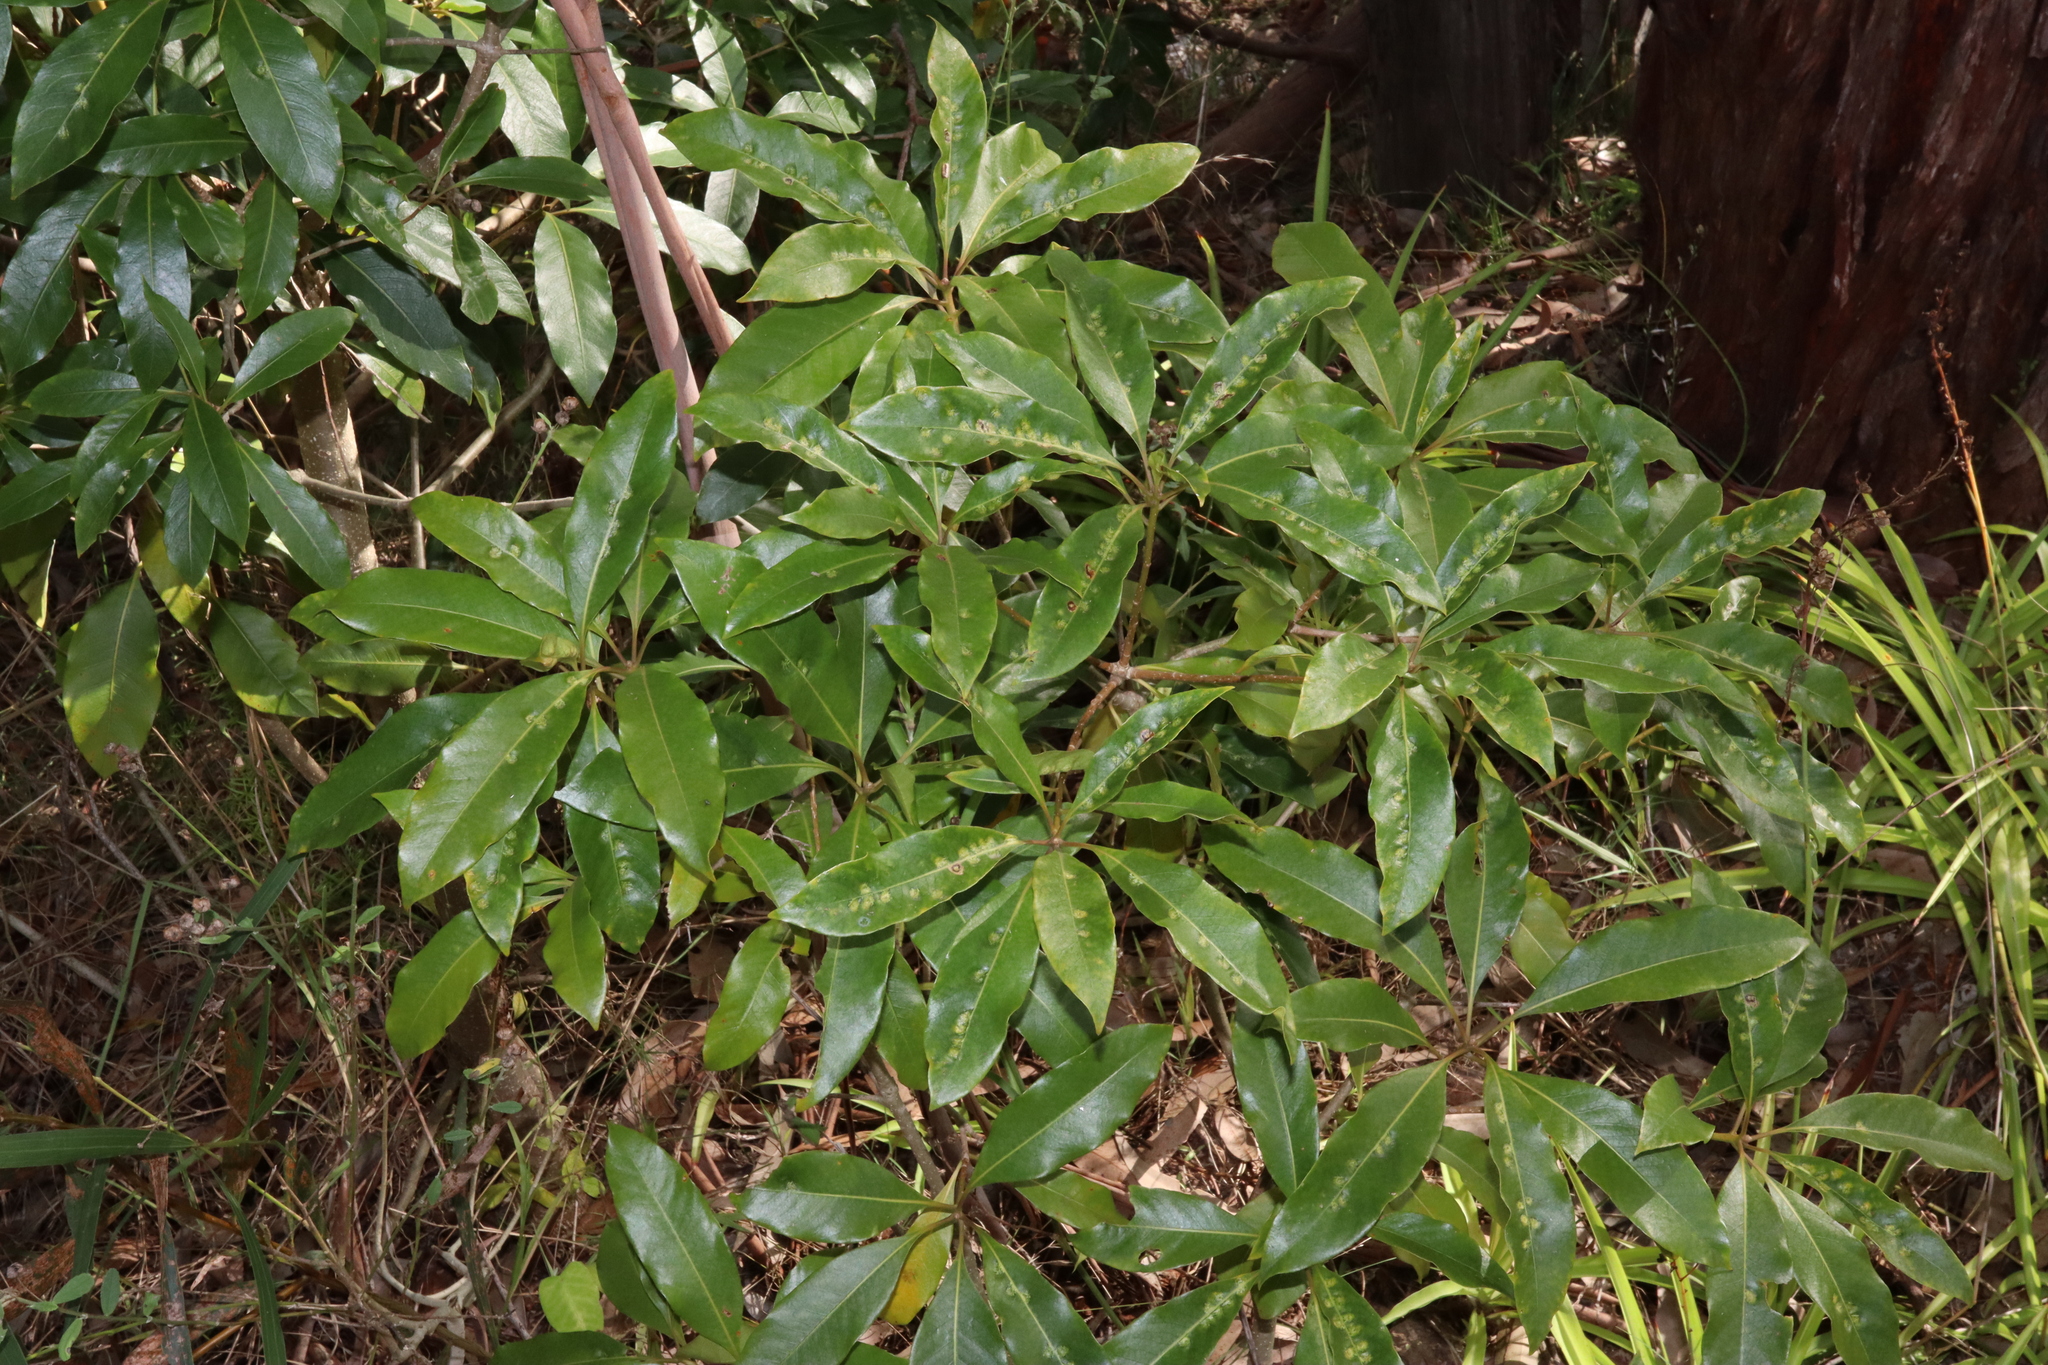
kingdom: Plantae
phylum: Tracheophyta
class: Magnoliopsida
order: Apiales
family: Pittosporaceae
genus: Pittosporum
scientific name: Pittosporum undulatum
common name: Australian cheesewood
